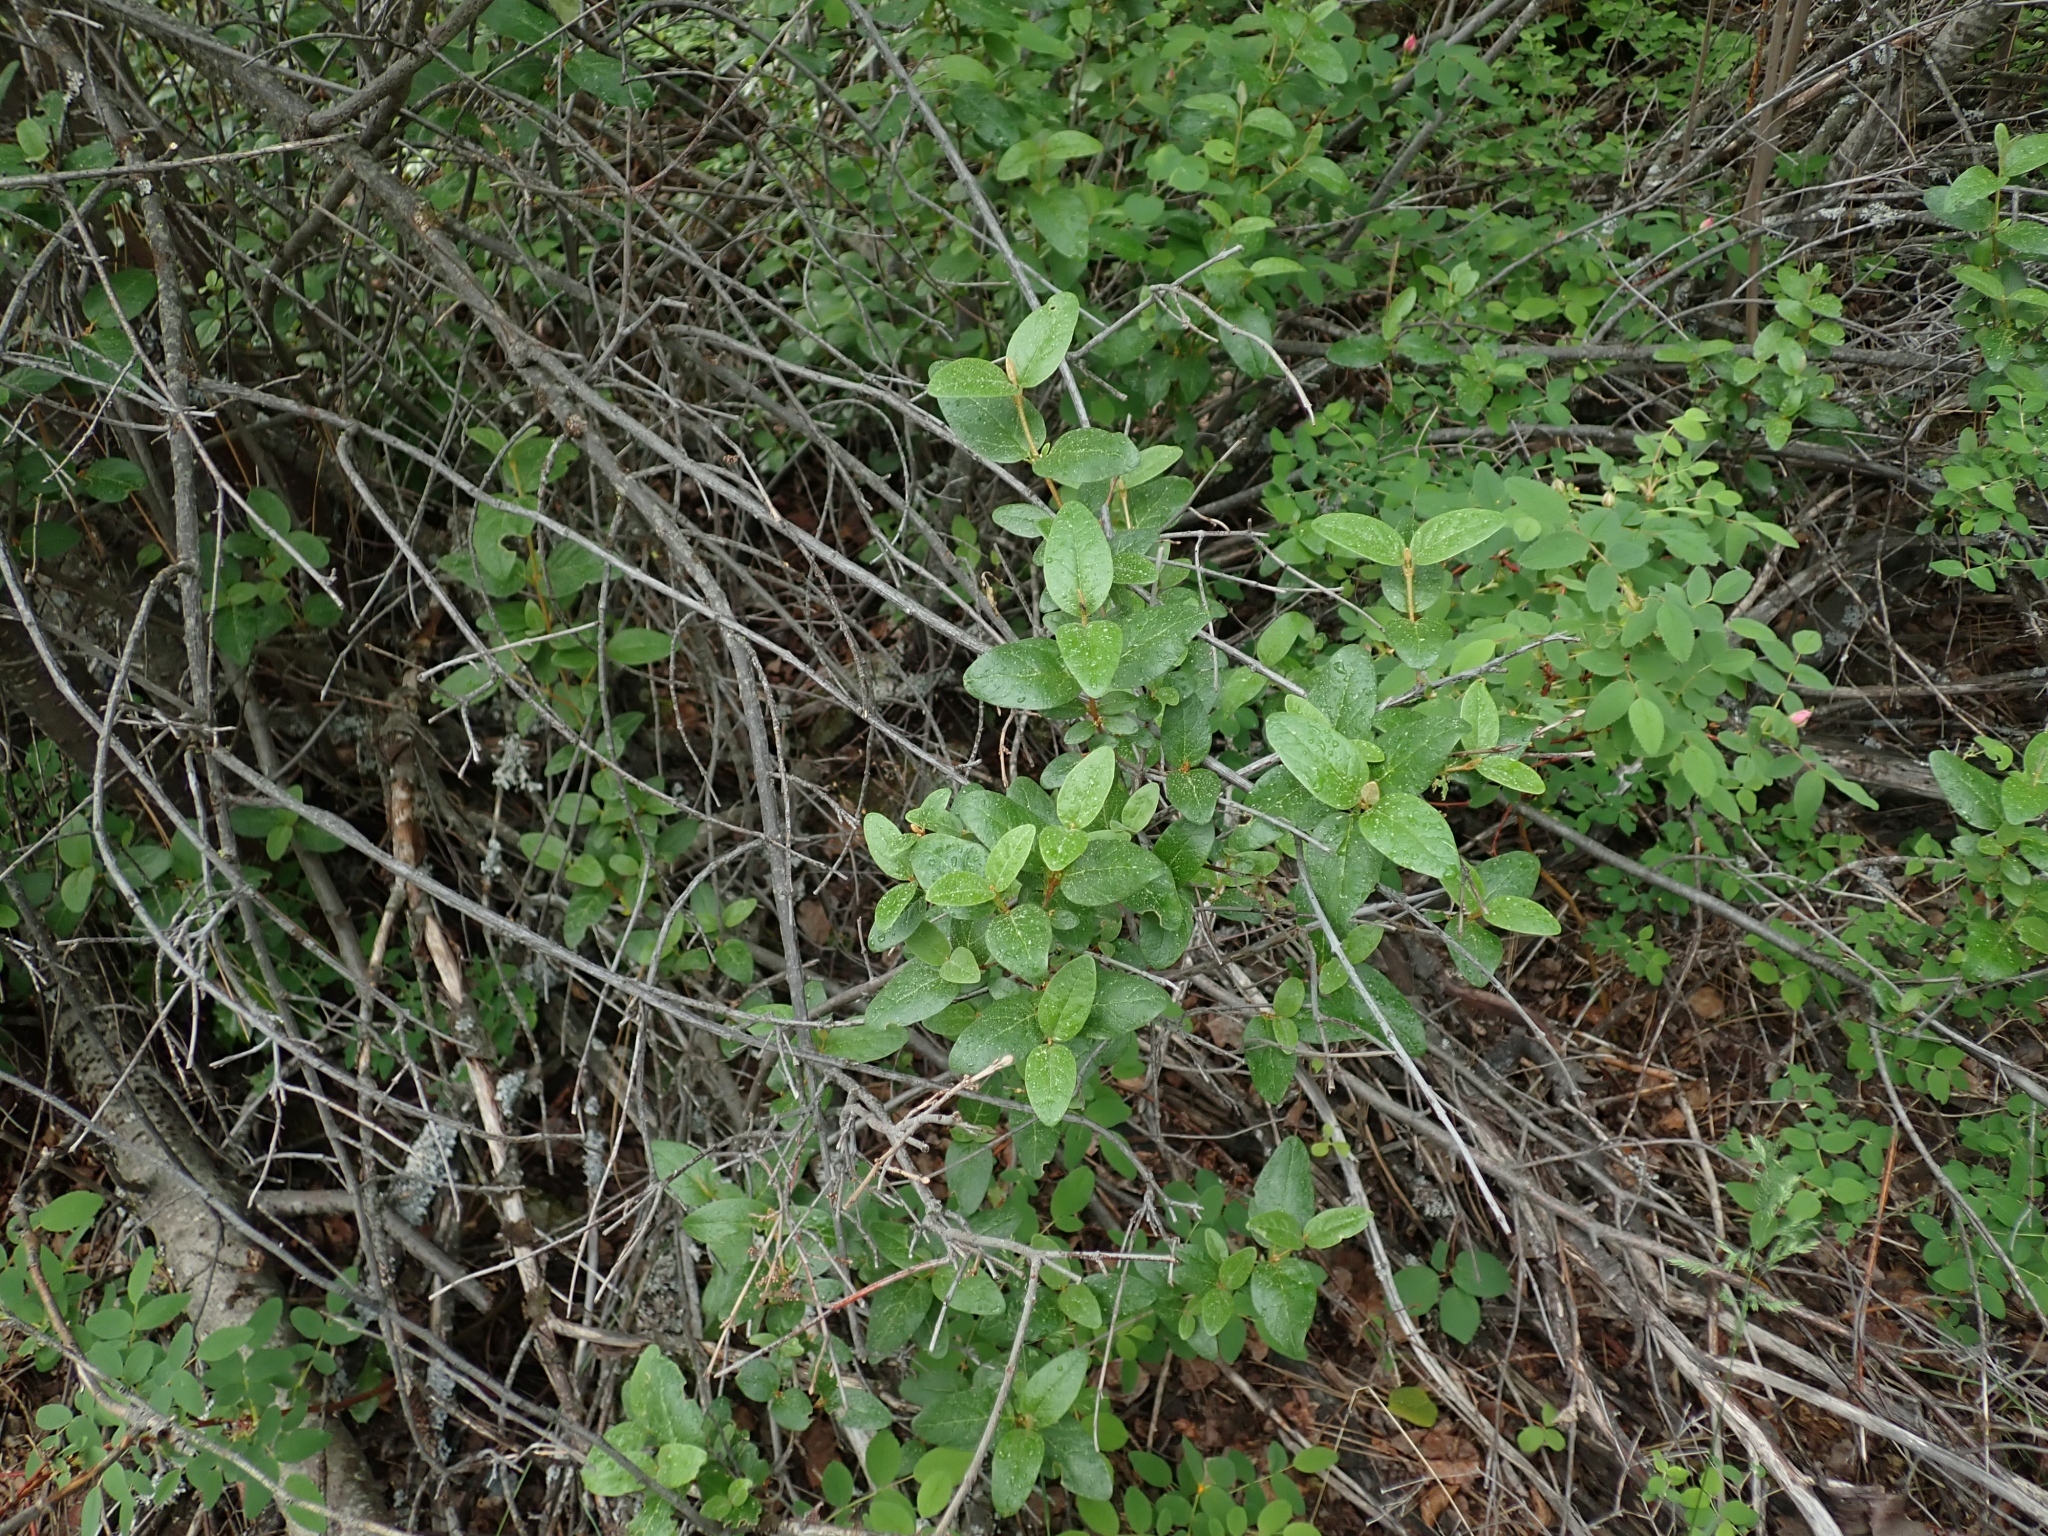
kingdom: Plantae
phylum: Tracheophyta
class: Magnoliopsida
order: Rosales
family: Elaeagnaceae
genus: Shepherdia
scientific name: Shepherdia canadensis
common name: Soapberry
